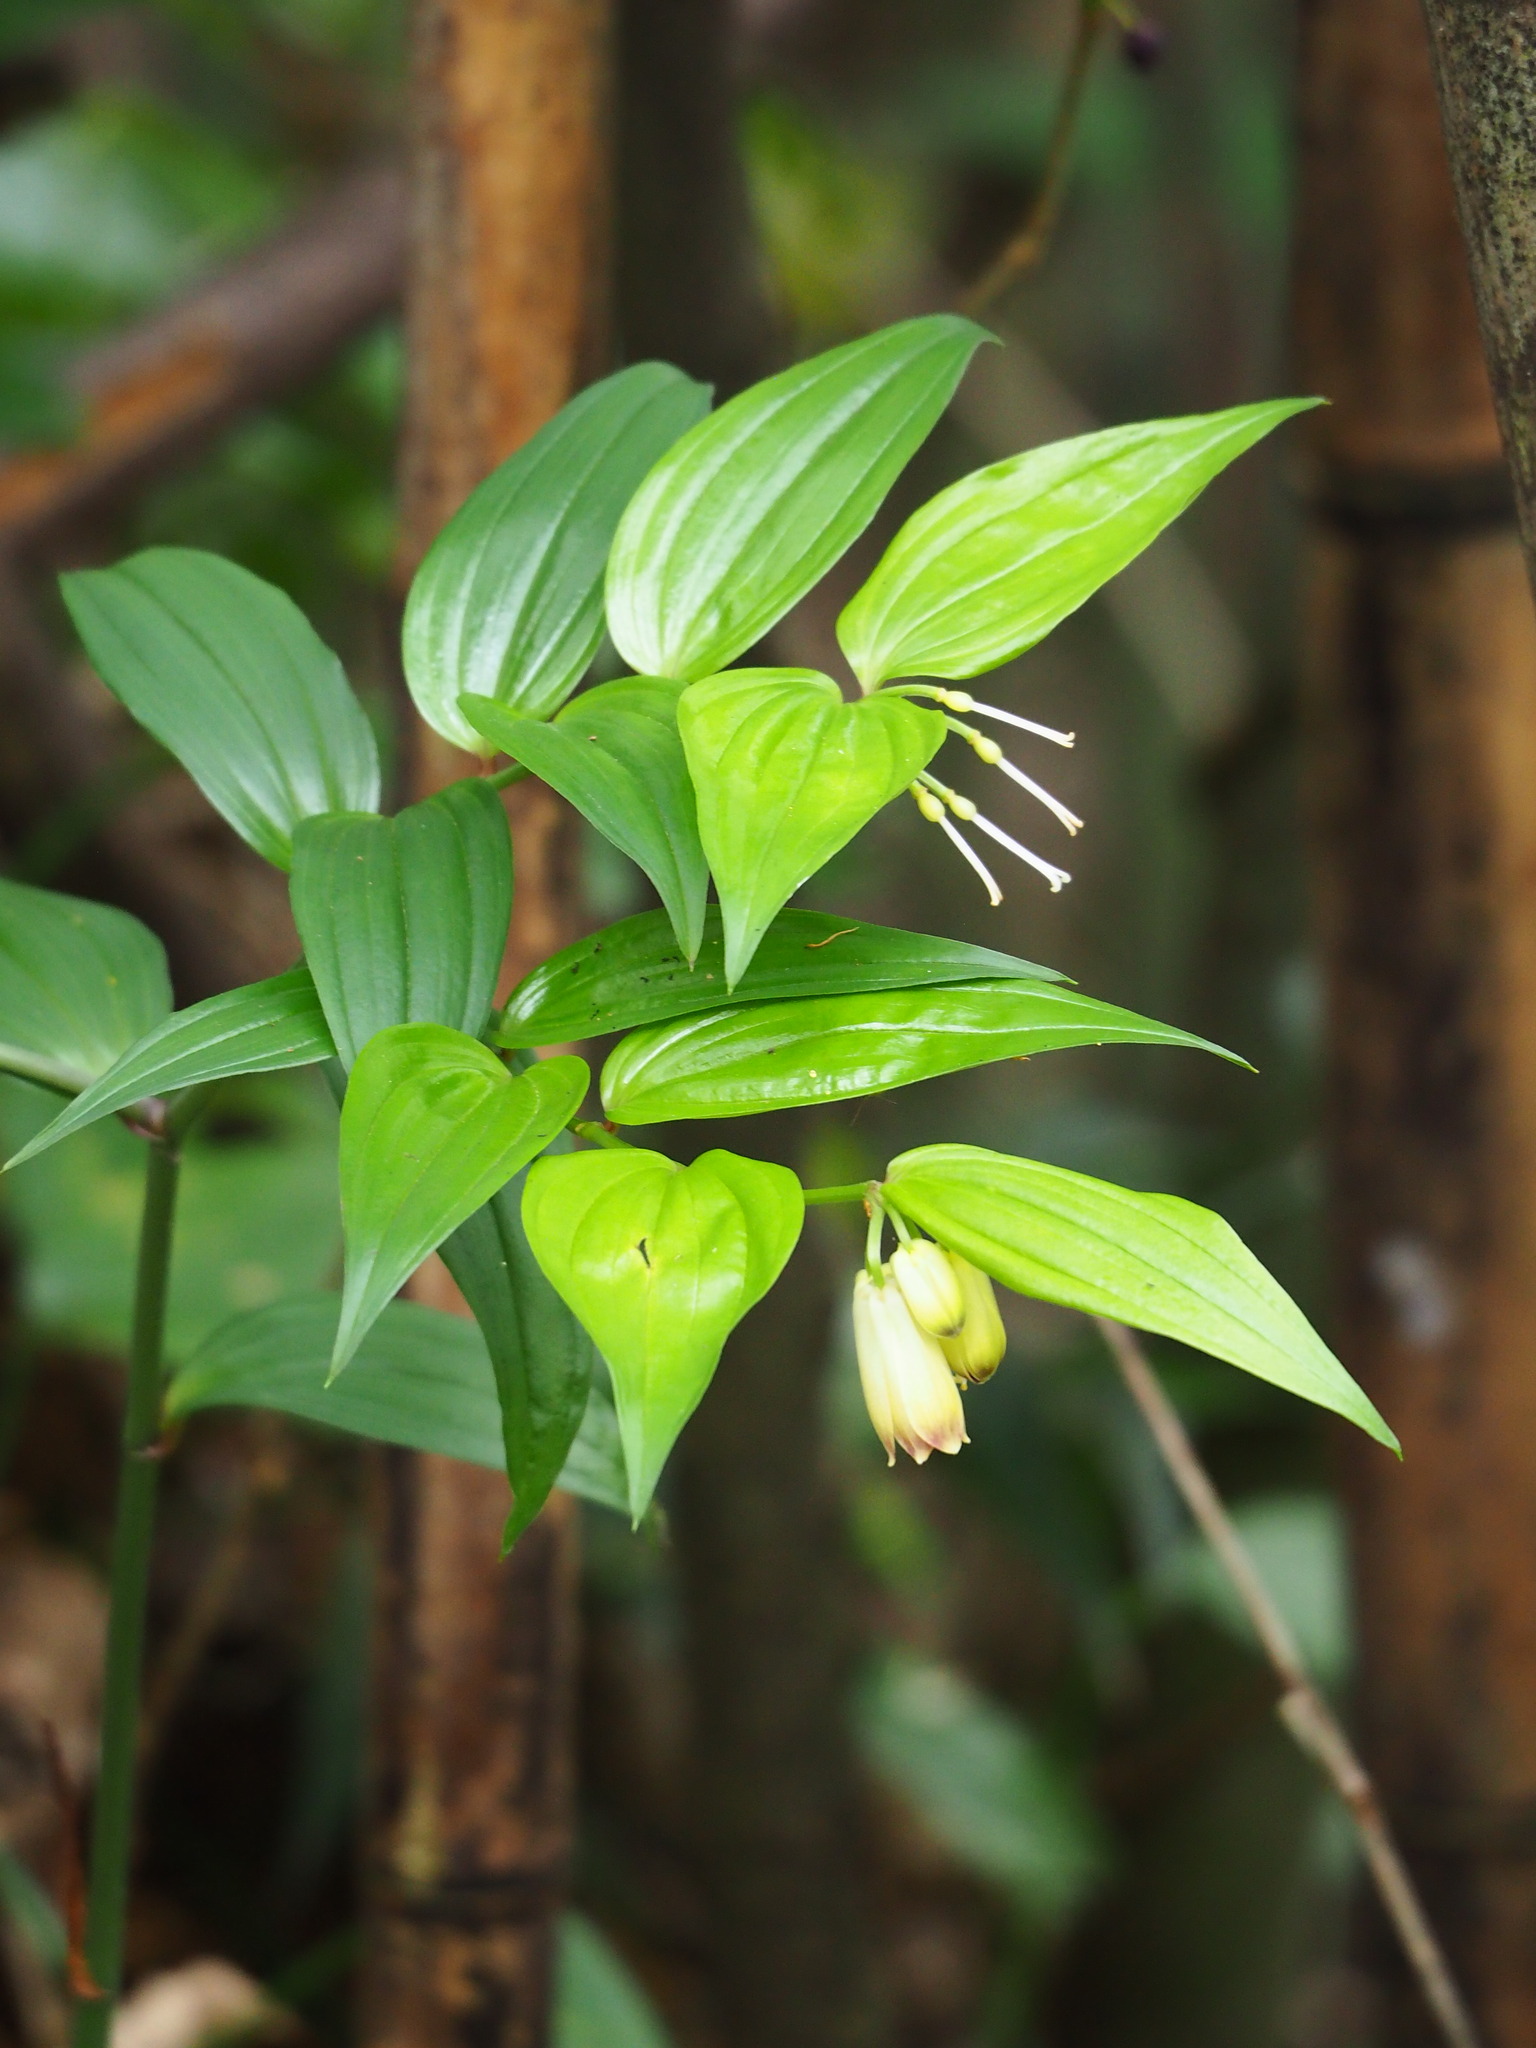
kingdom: Plantae
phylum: Tracheophyta
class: Liliopsida
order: Liliales
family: Colchicaceae
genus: Disporum
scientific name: Disporum kawakamii
